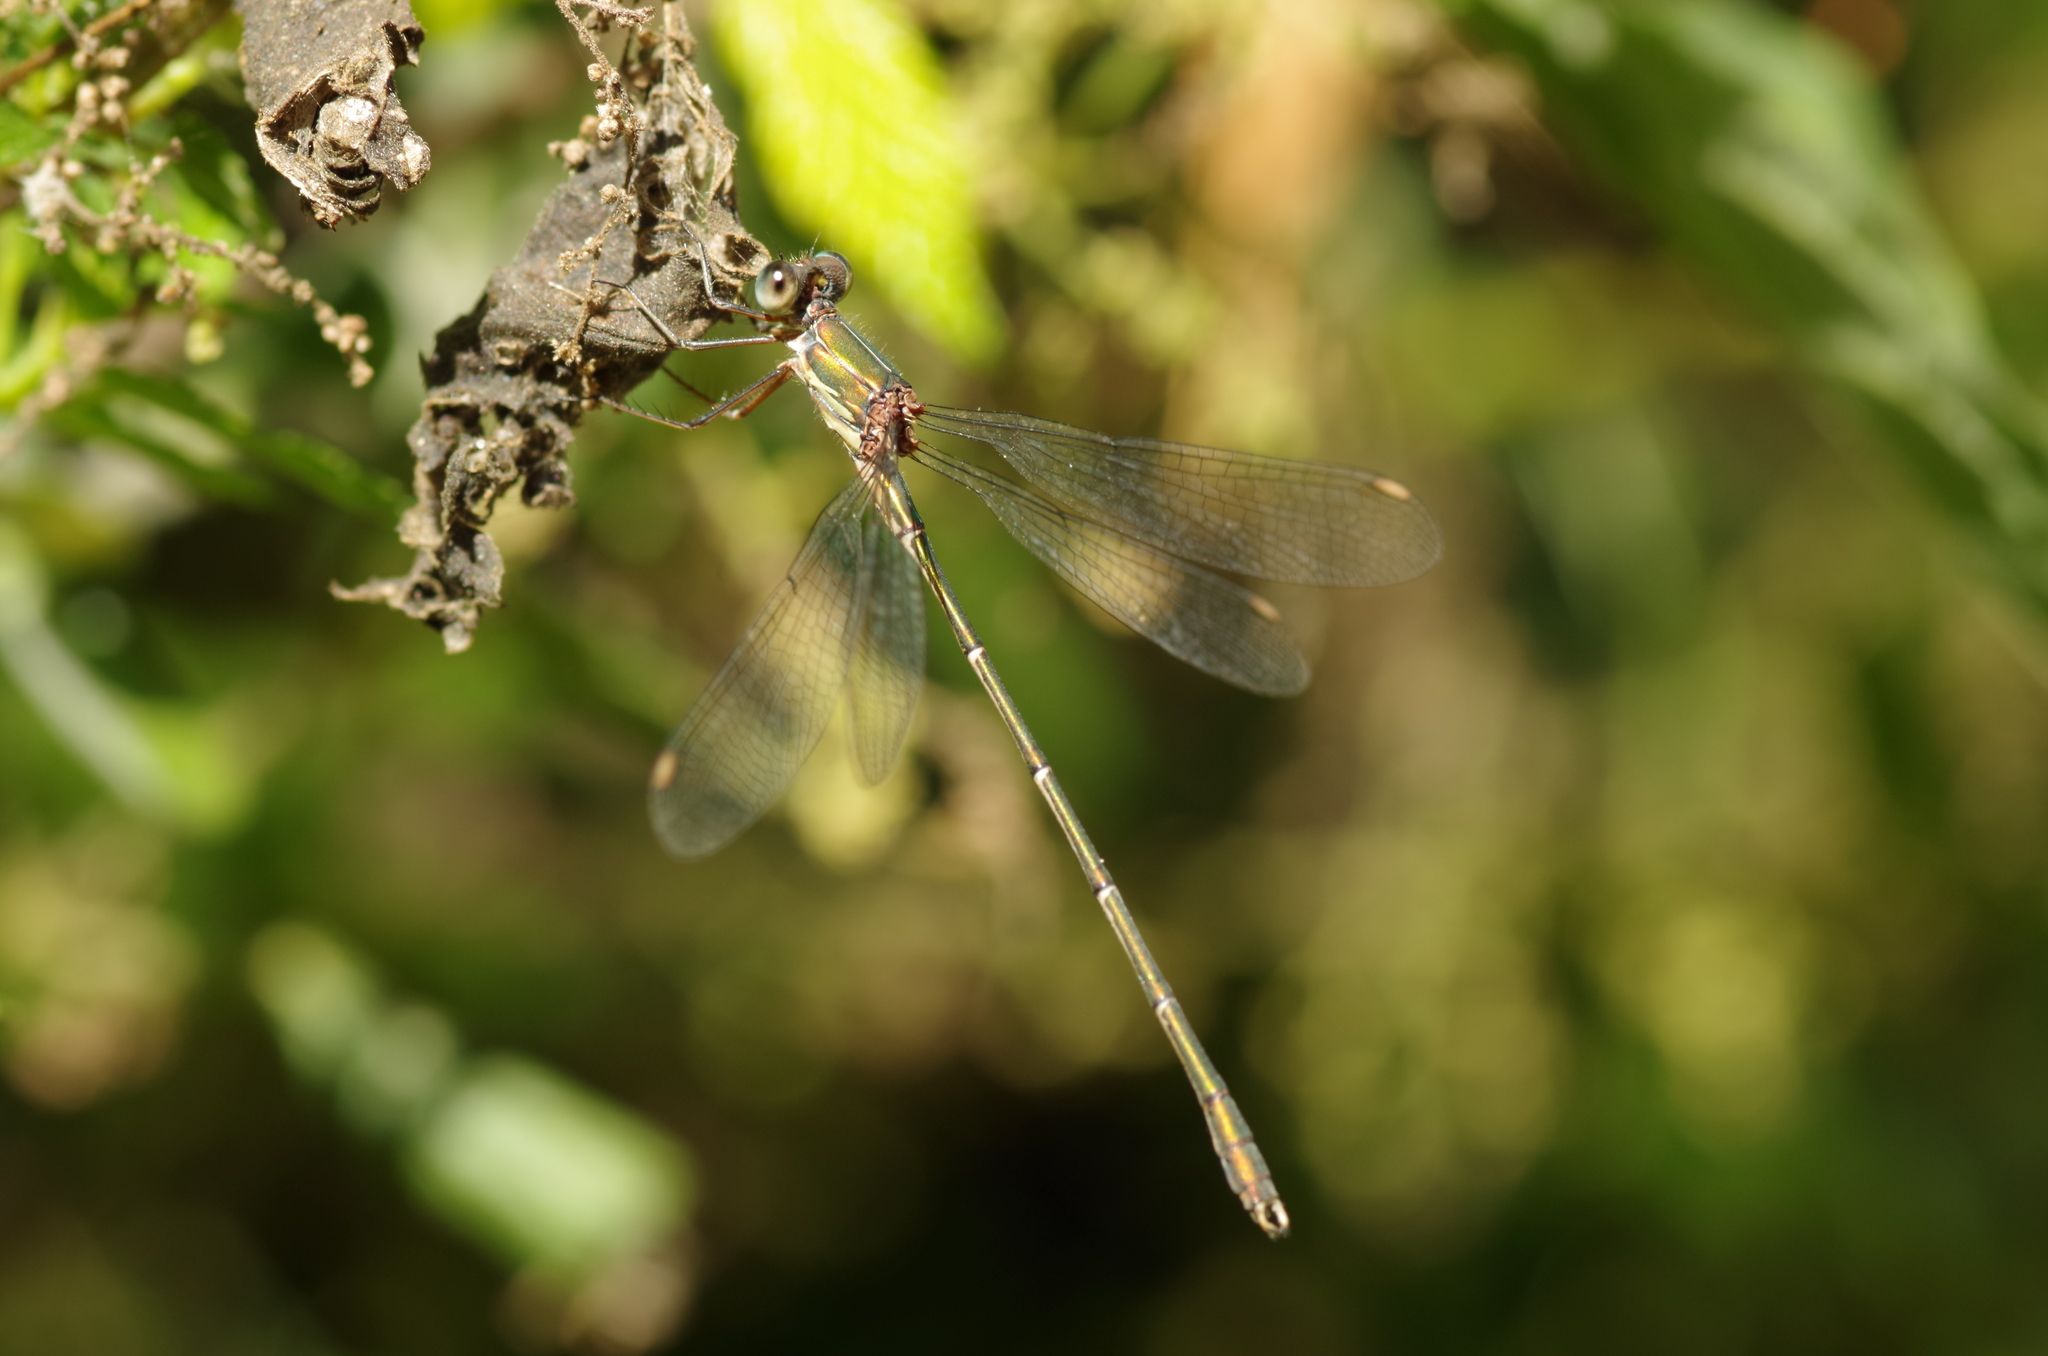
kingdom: Animalia
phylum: Arthropoda
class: Insecta
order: Odonata
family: Lestidae
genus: Chalcolestes
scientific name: Chalcolestes viridis
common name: Green emerald damselfly
